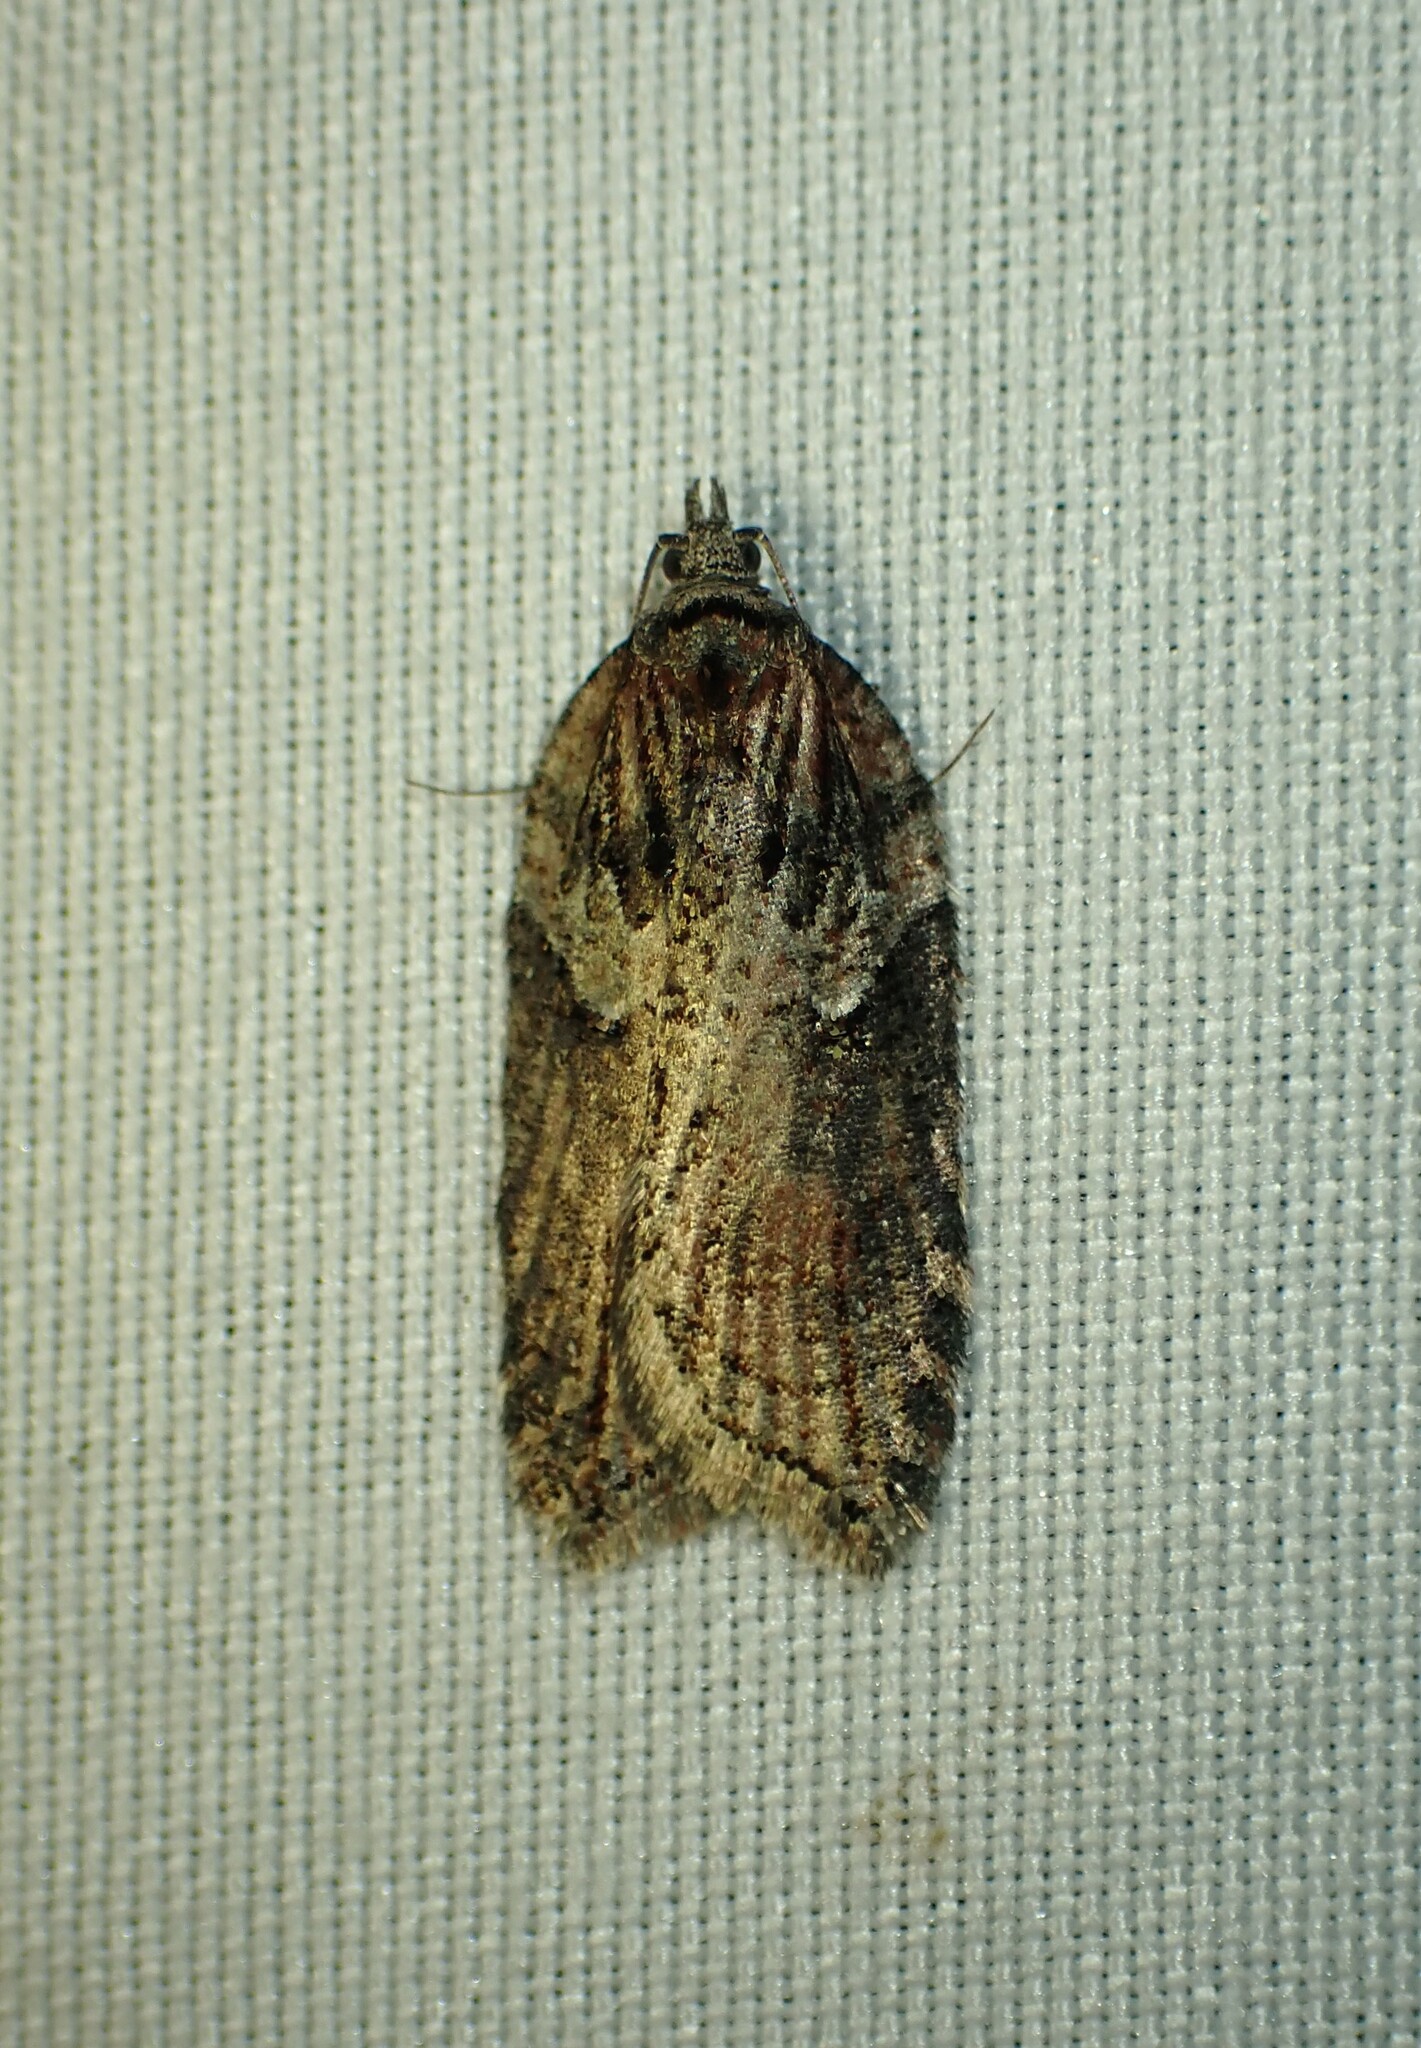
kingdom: Animalia
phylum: Arthropoda
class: Insecta
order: Lepidoptera
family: Tortricidae
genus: Acleris
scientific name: Acleris hastiana
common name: Sallow button
